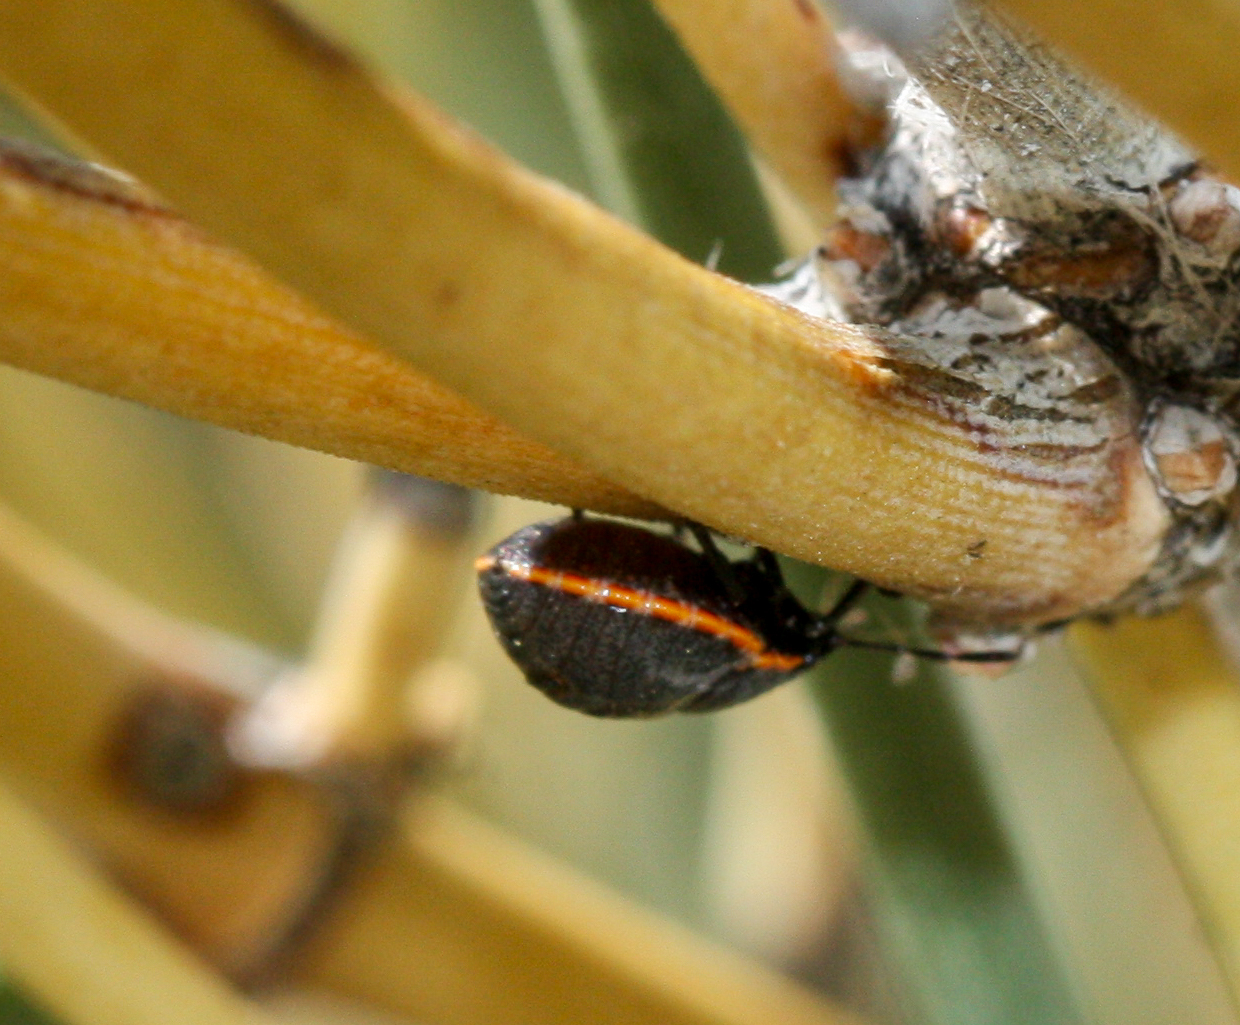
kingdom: Animalia
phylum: Arthropoda
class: Insecta
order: Hemiptera
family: Pentatomidae
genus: Chlorochroa
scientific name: Chlorochroa ligata
